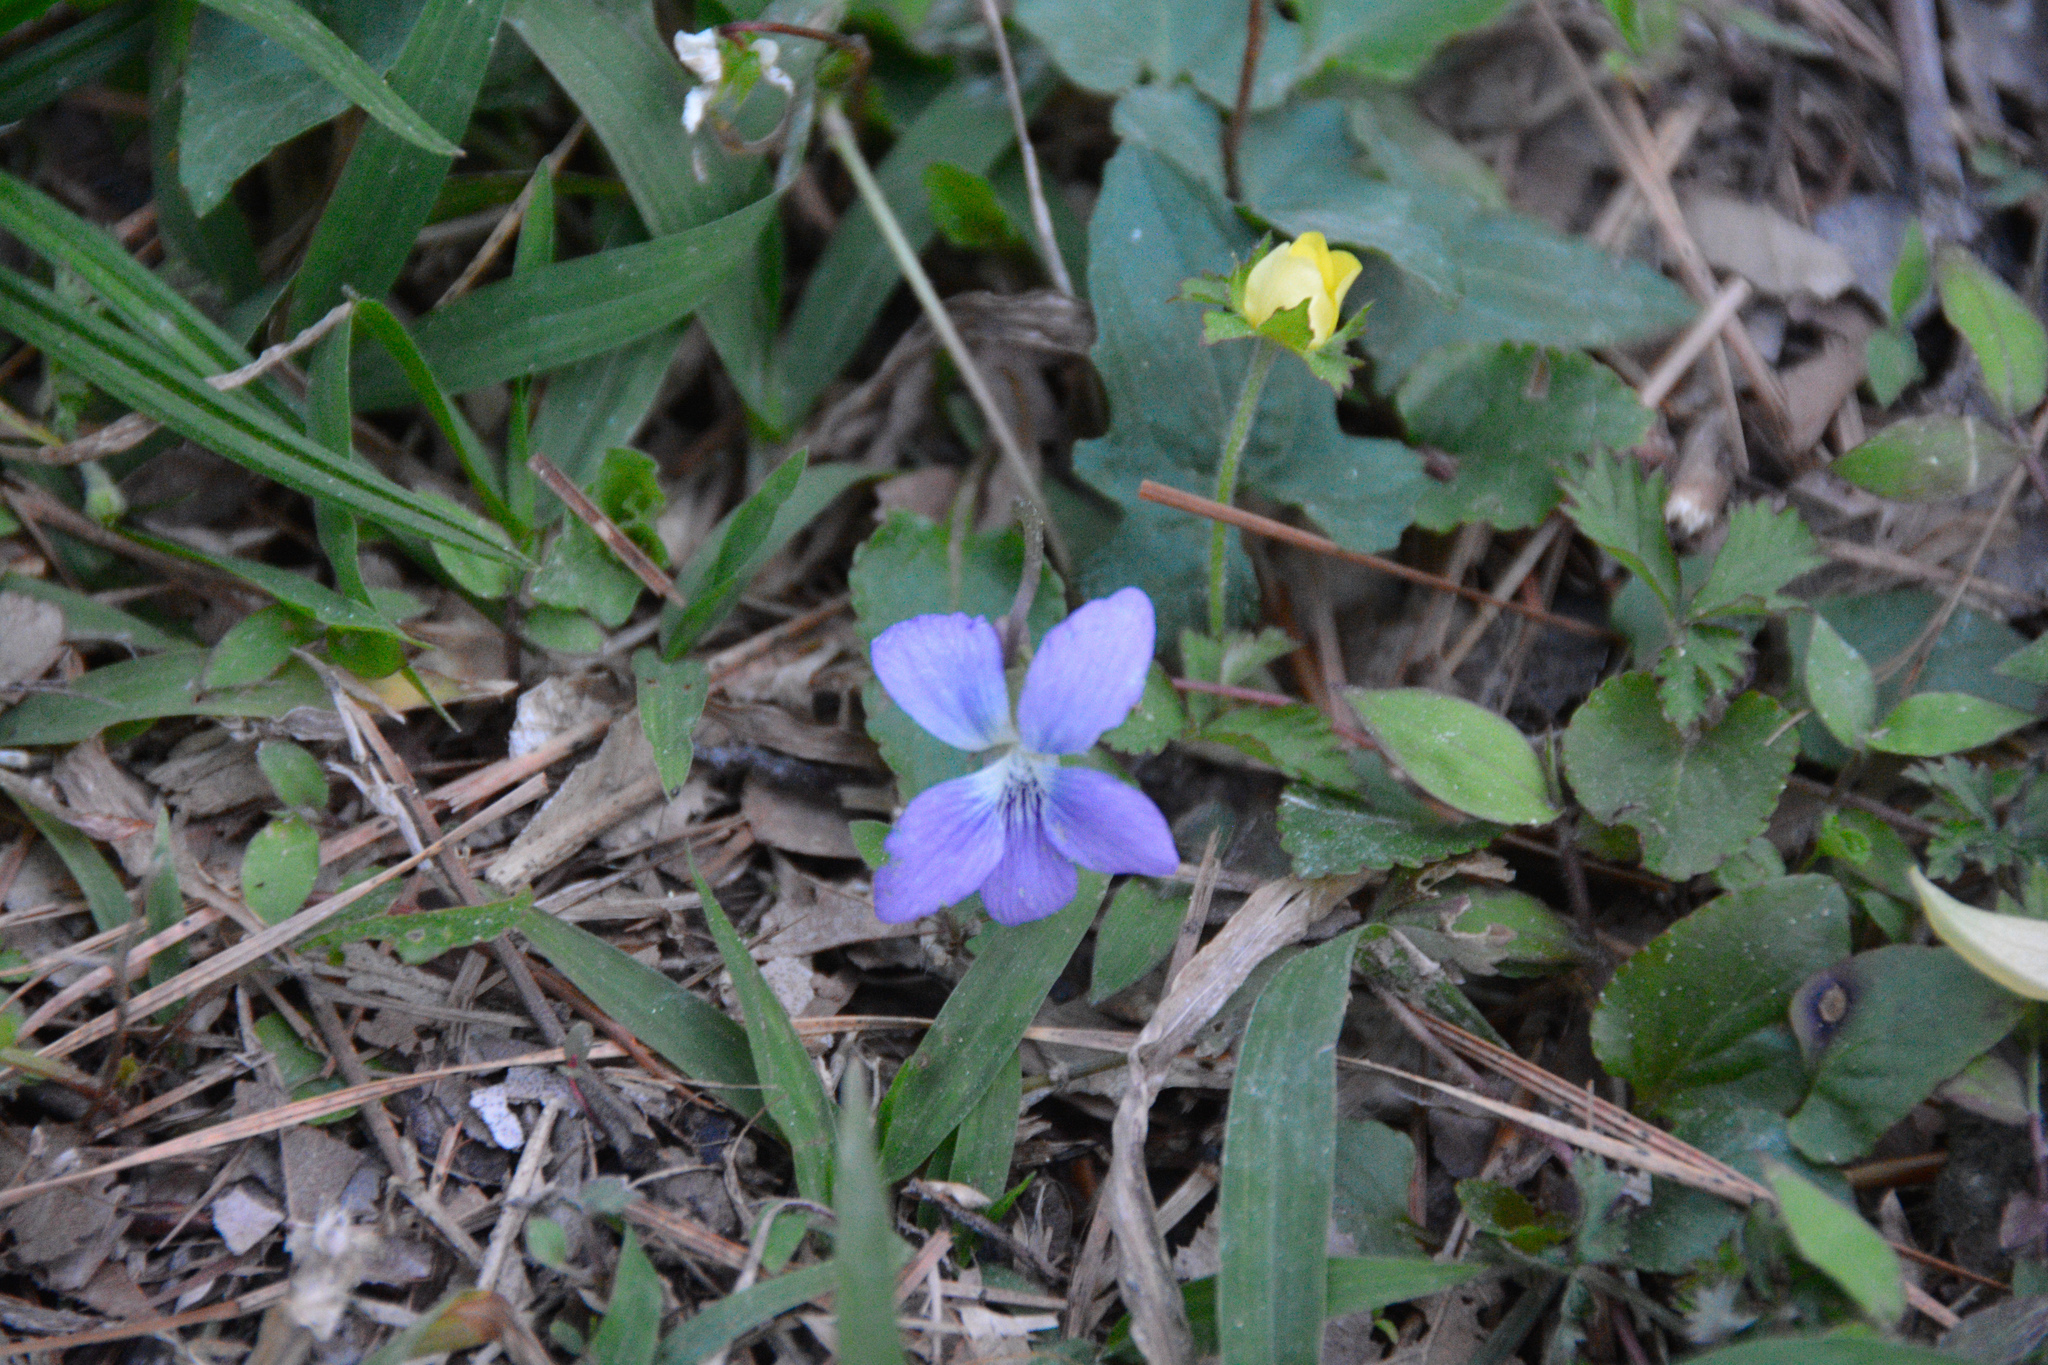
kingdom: Plantae
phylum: Tracheophyta
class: Magnoliopsida
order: Malpighiales
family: Violaceae
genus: Viola
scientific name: Viola palmata
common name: Early blue violet
